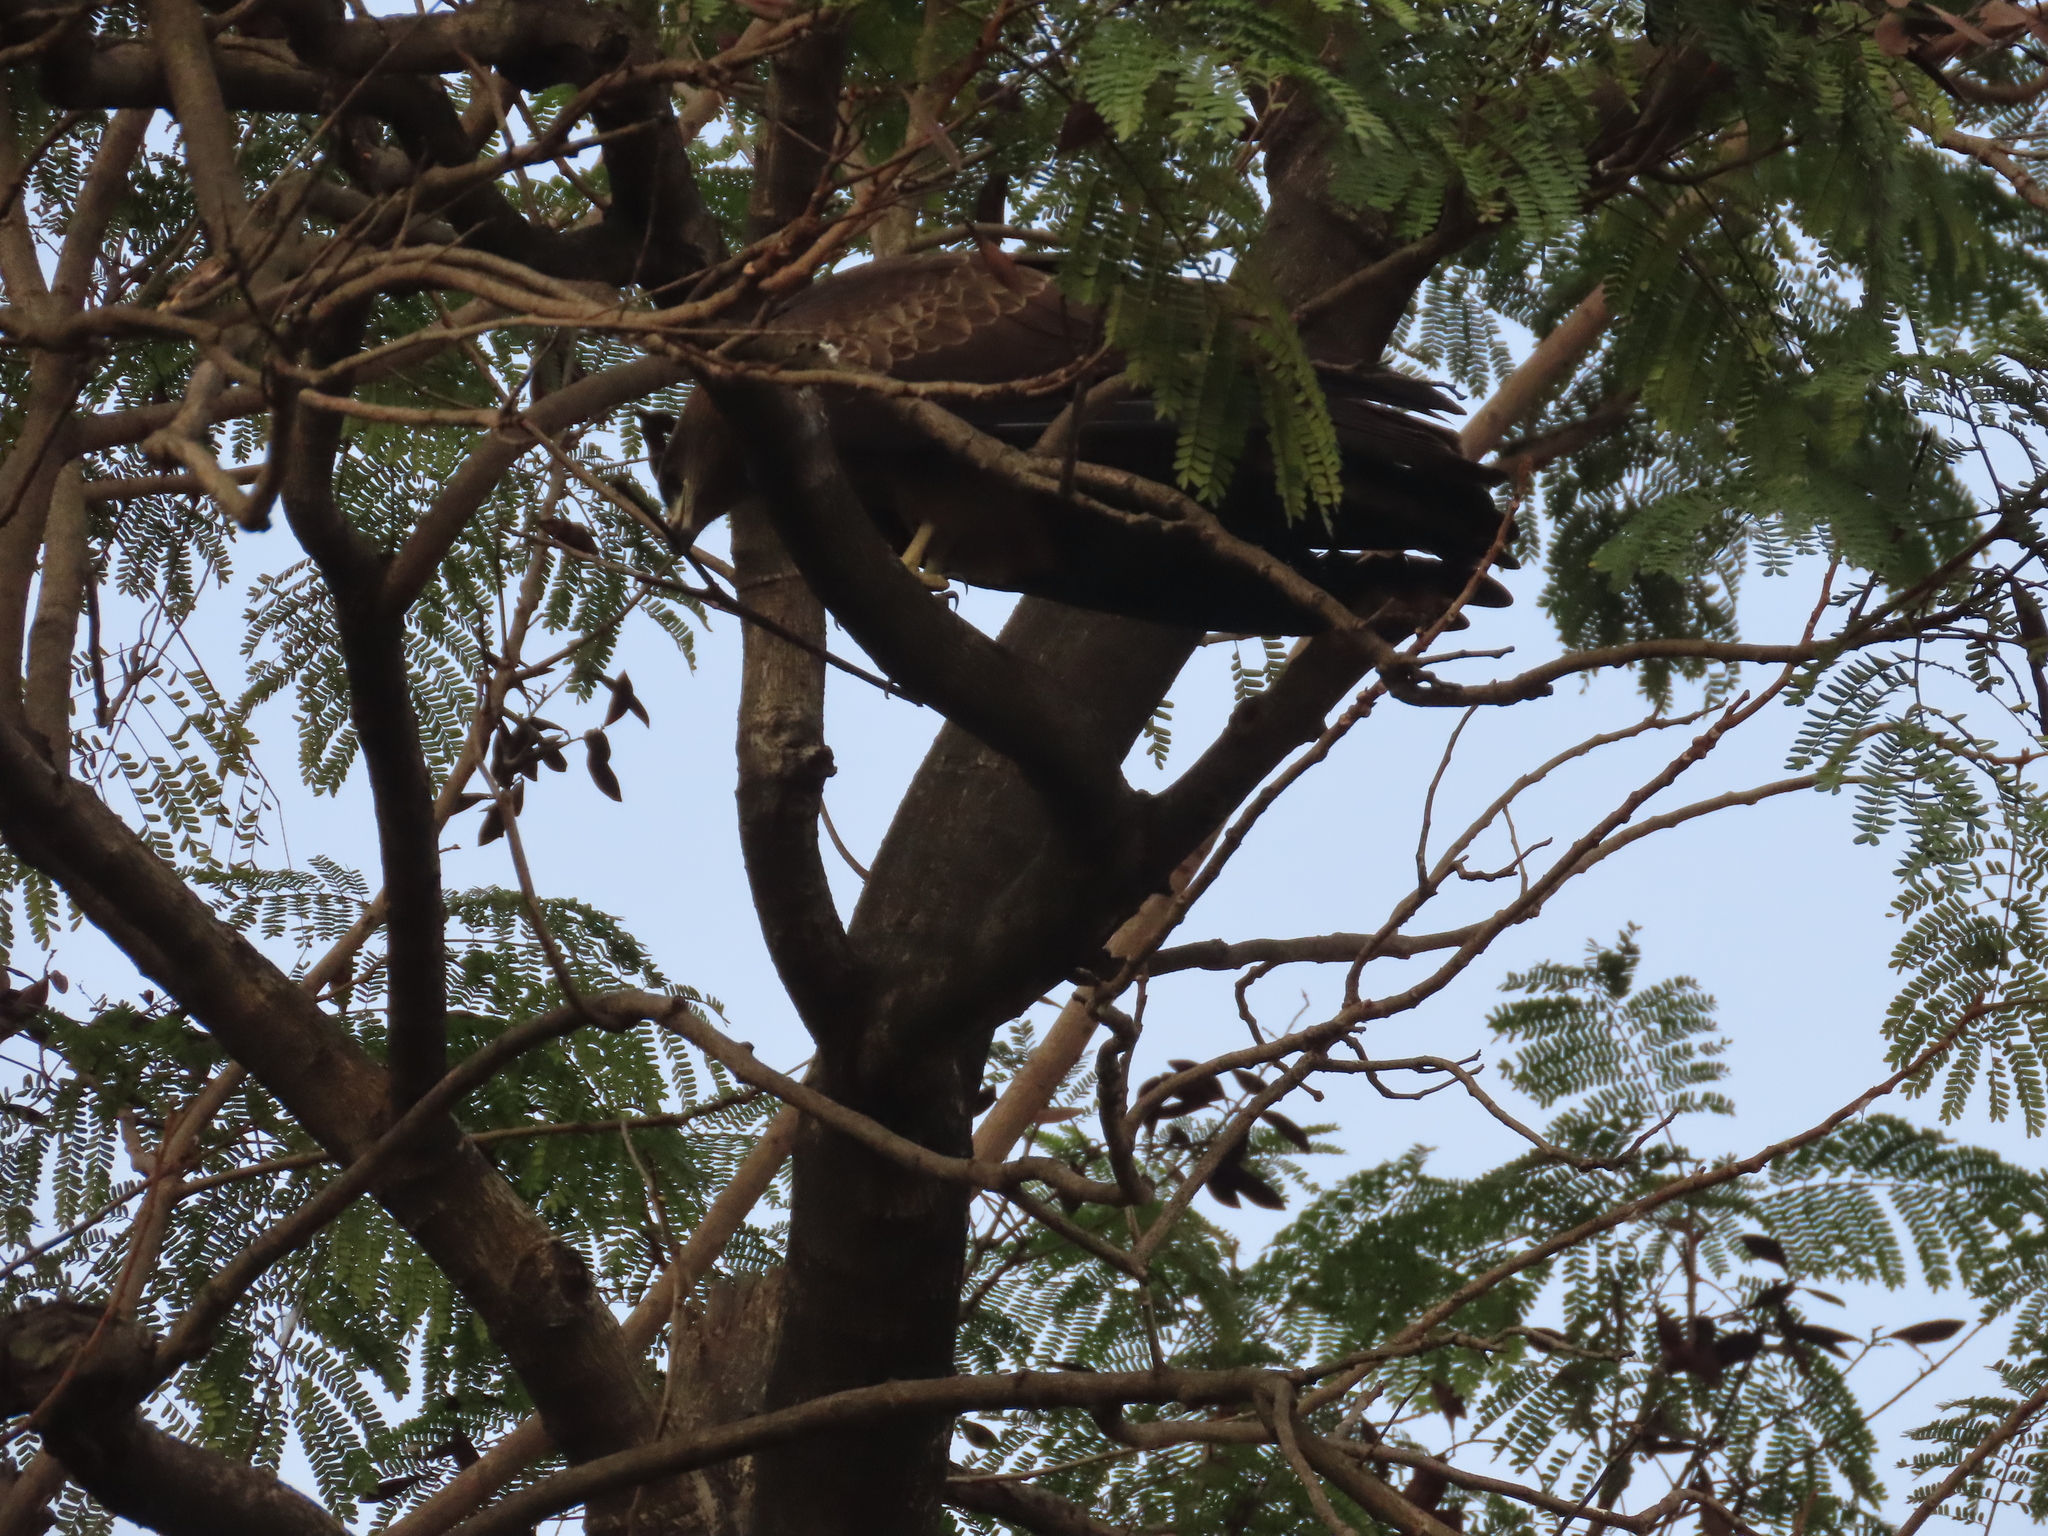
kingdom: Animalia
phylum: Chordata
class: Aves
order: Accipitriformes
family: Accipitridae
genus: Milvus
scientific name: Milvus migrans
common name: Black kite
